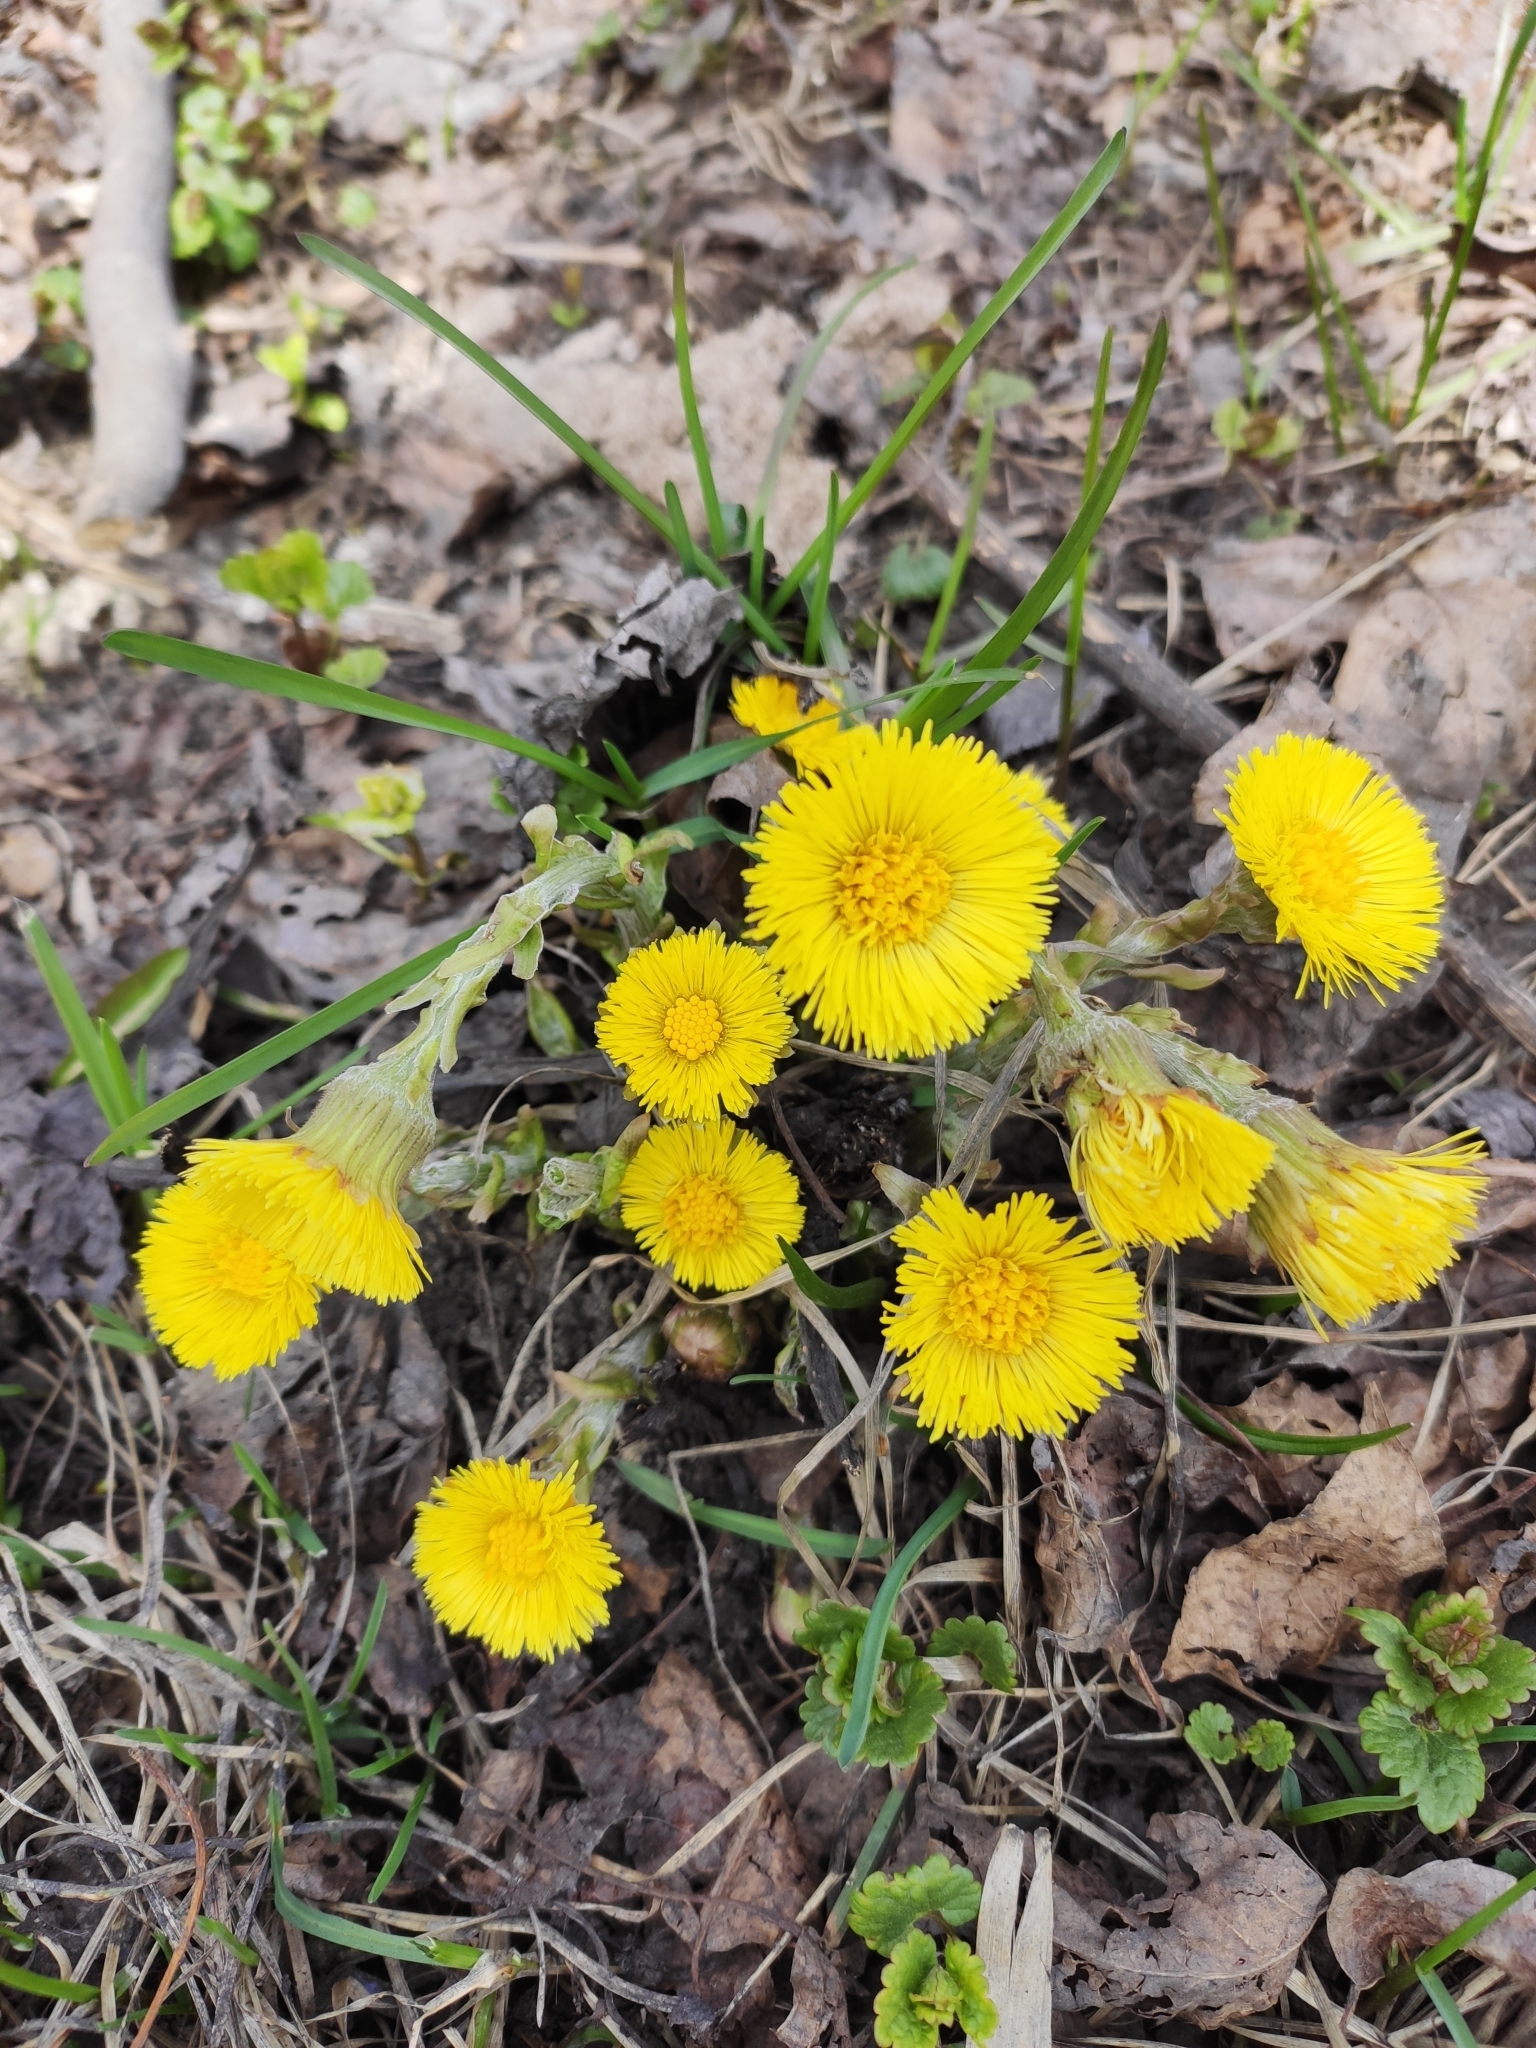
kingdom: Plantae
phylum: Tracheophyta
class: Magnoliopsida
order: Asterales
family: Asteraceae
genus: Tussilago
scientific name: Tussilago farfara
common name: Coltsfoot
